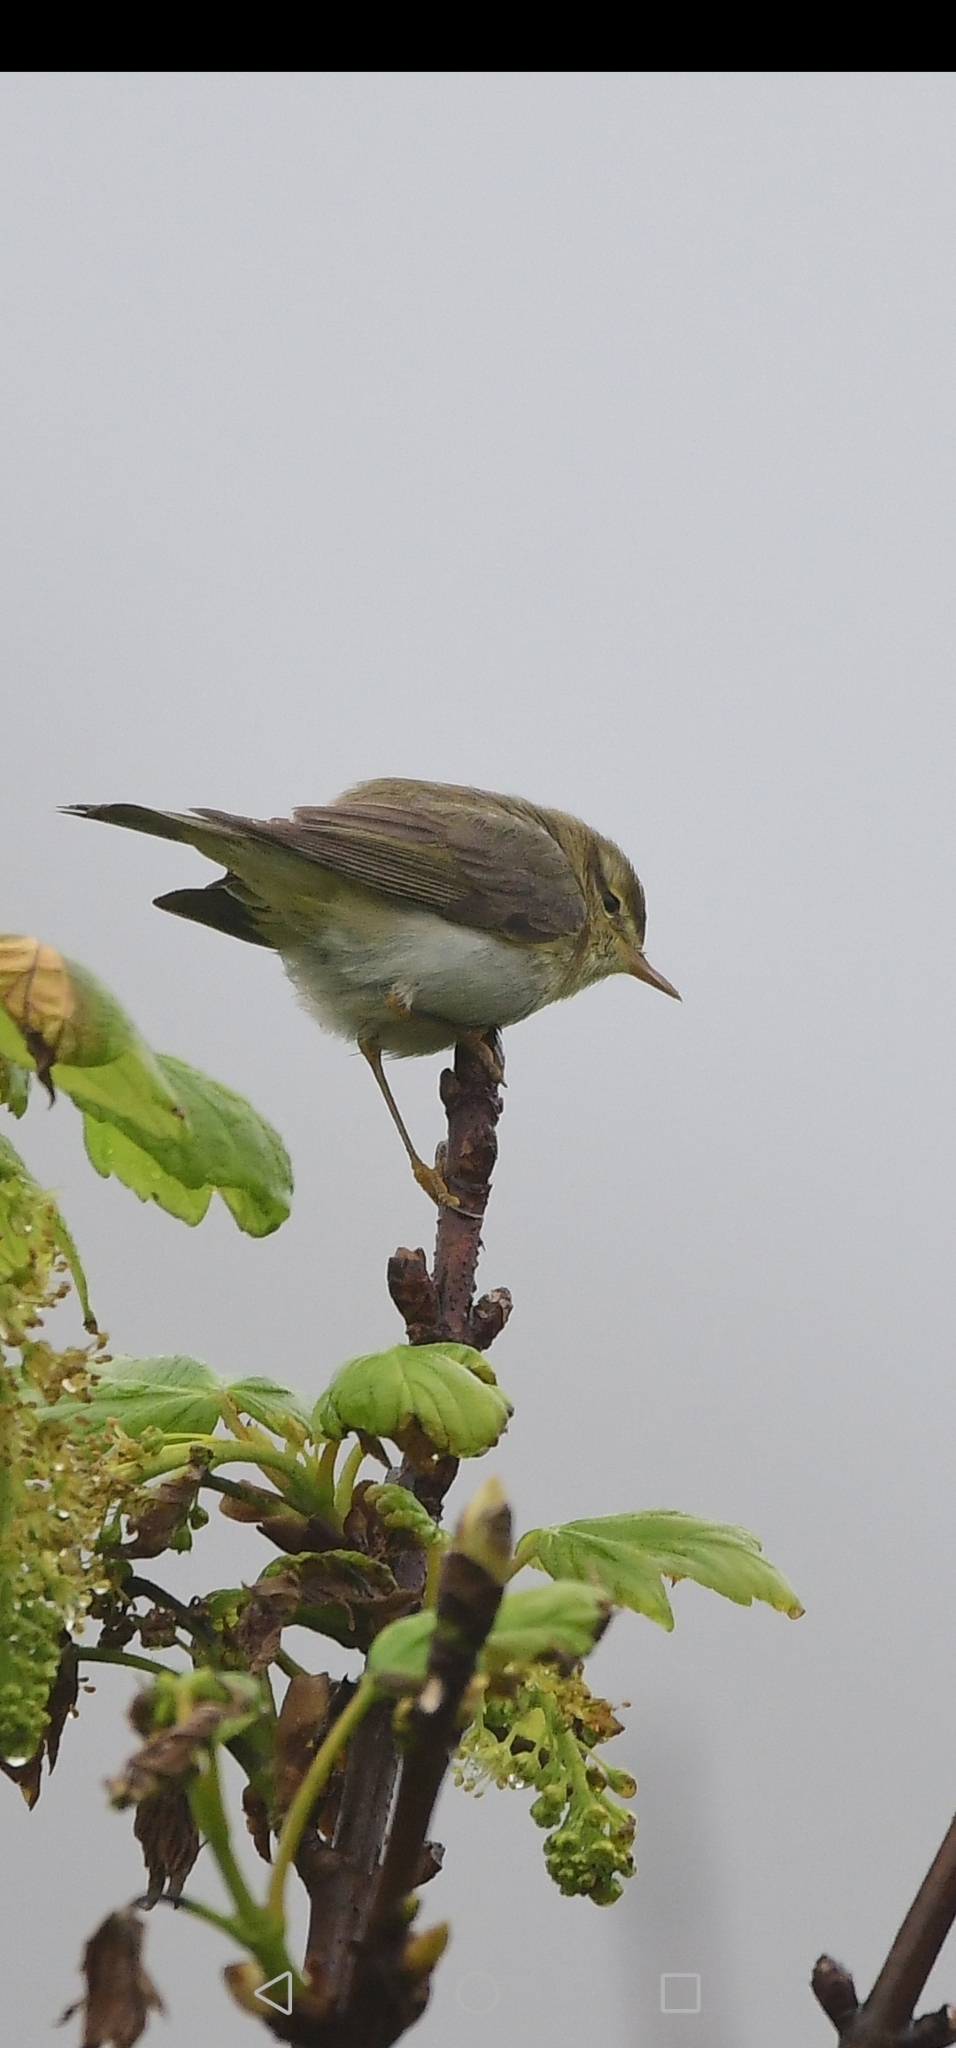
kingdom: Animalia
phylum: Chordata
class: Aves
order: Passeriformes
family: Phylloscopidae
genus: Phylloscopus
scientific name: Phylloscopus trochilus
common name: Willow warbler
